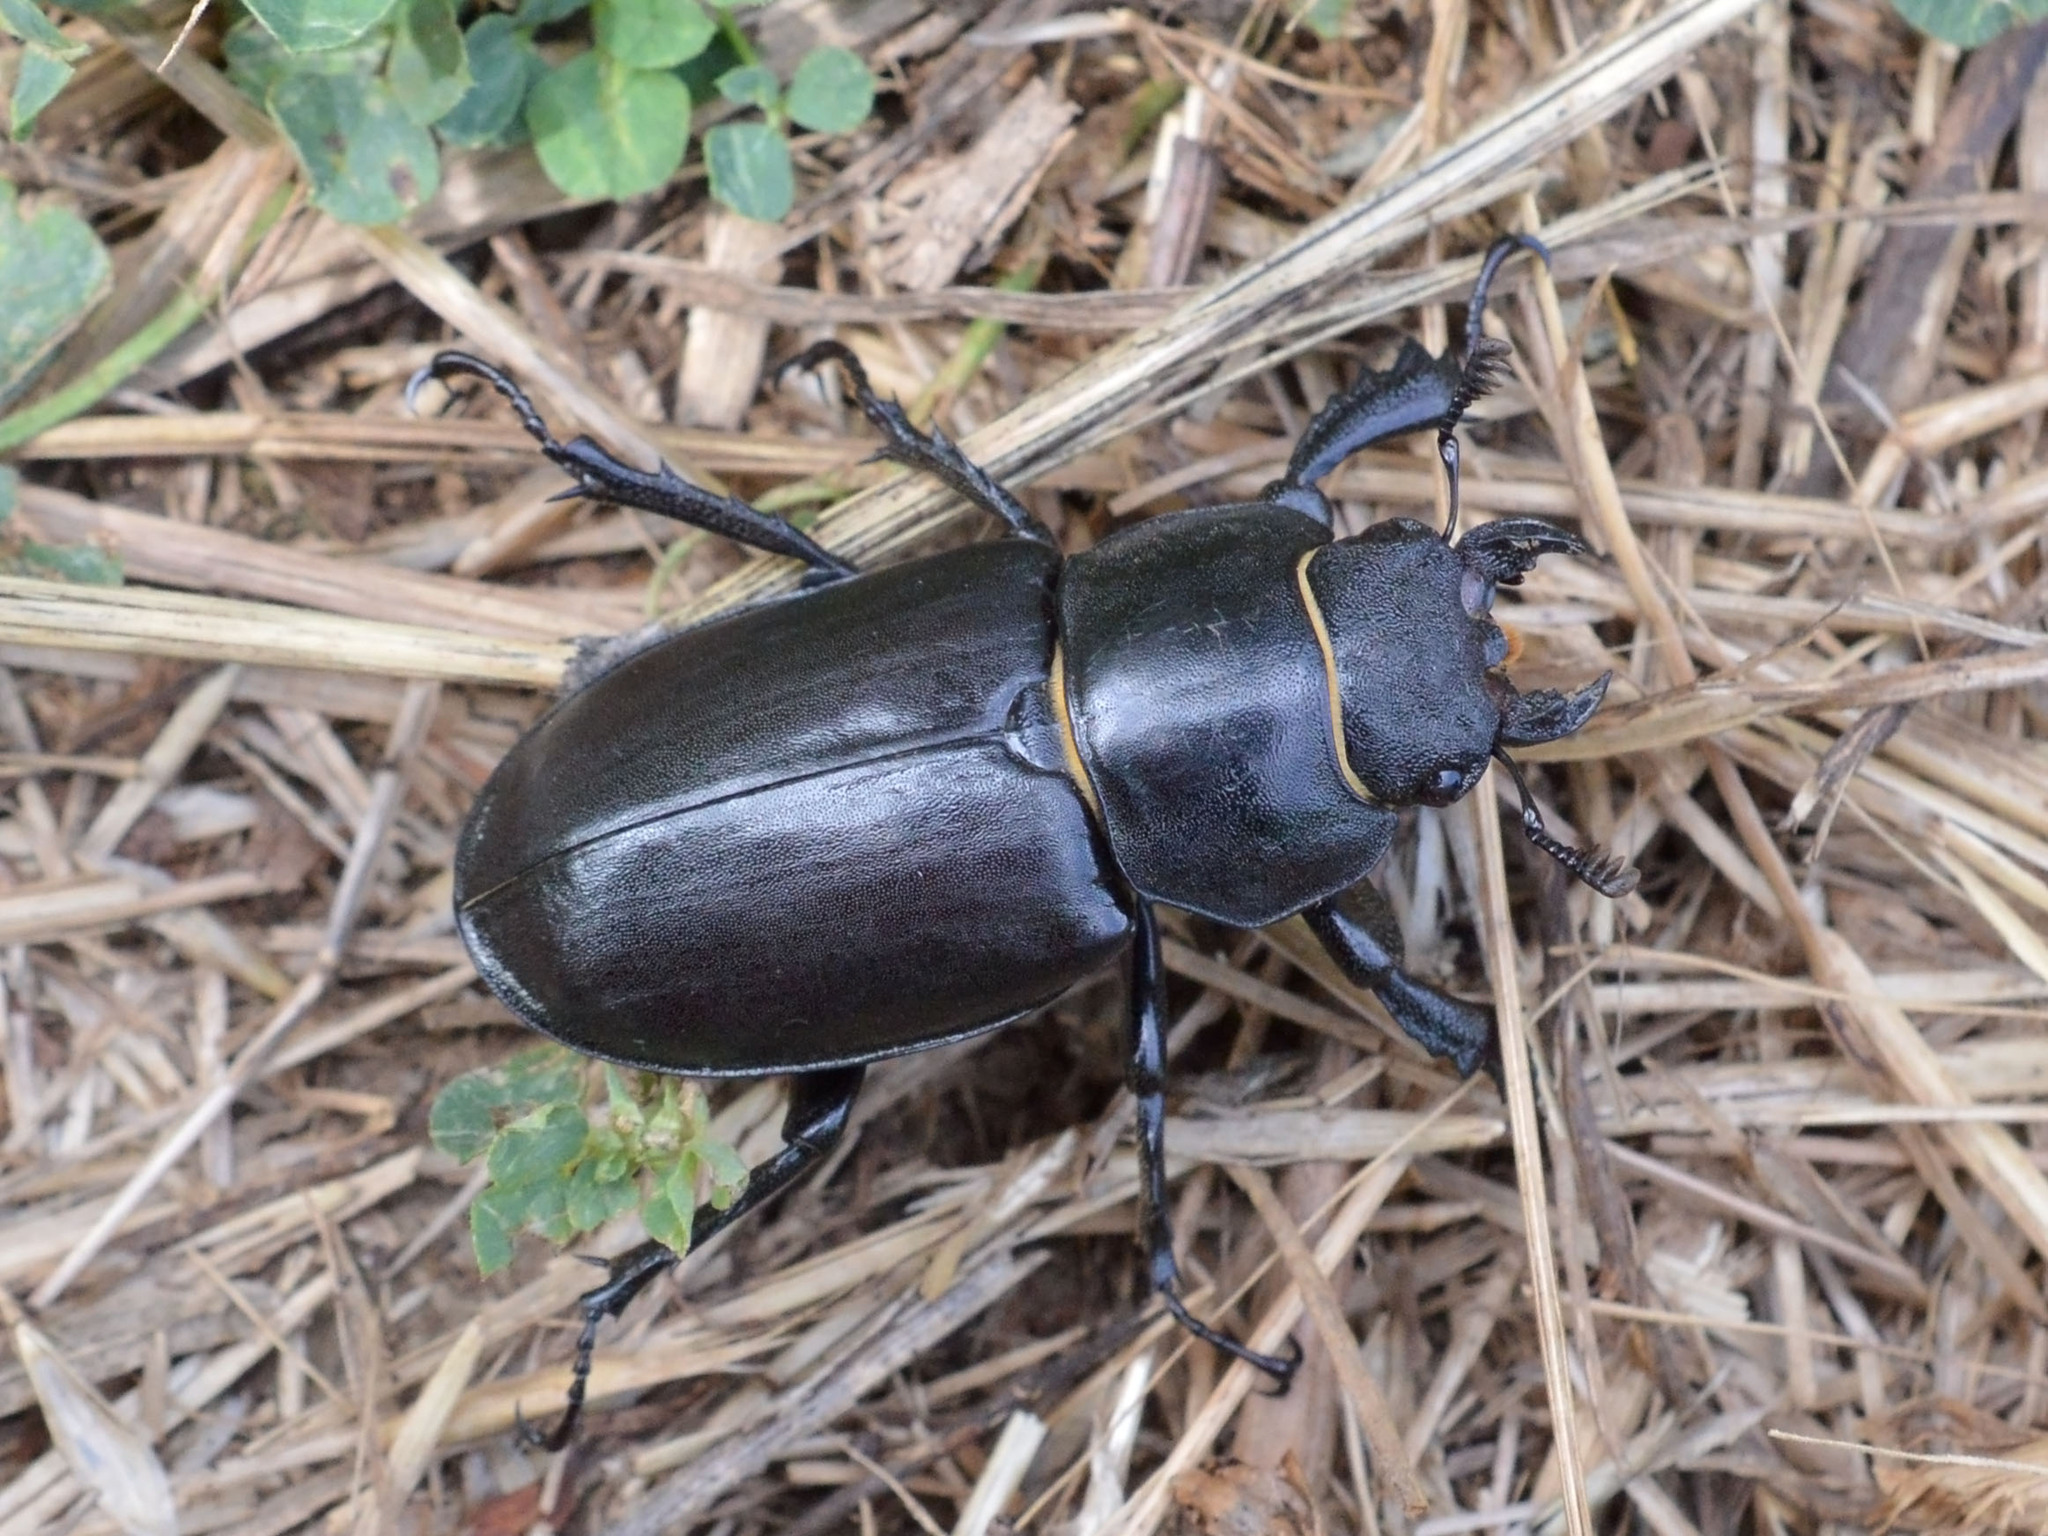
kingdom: Animalia
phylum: Arthropoda
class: Insecta
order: Coleoptera
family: Lucanidae
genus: Lucanus
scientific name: Lucanus cervus
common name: Stag beetle
